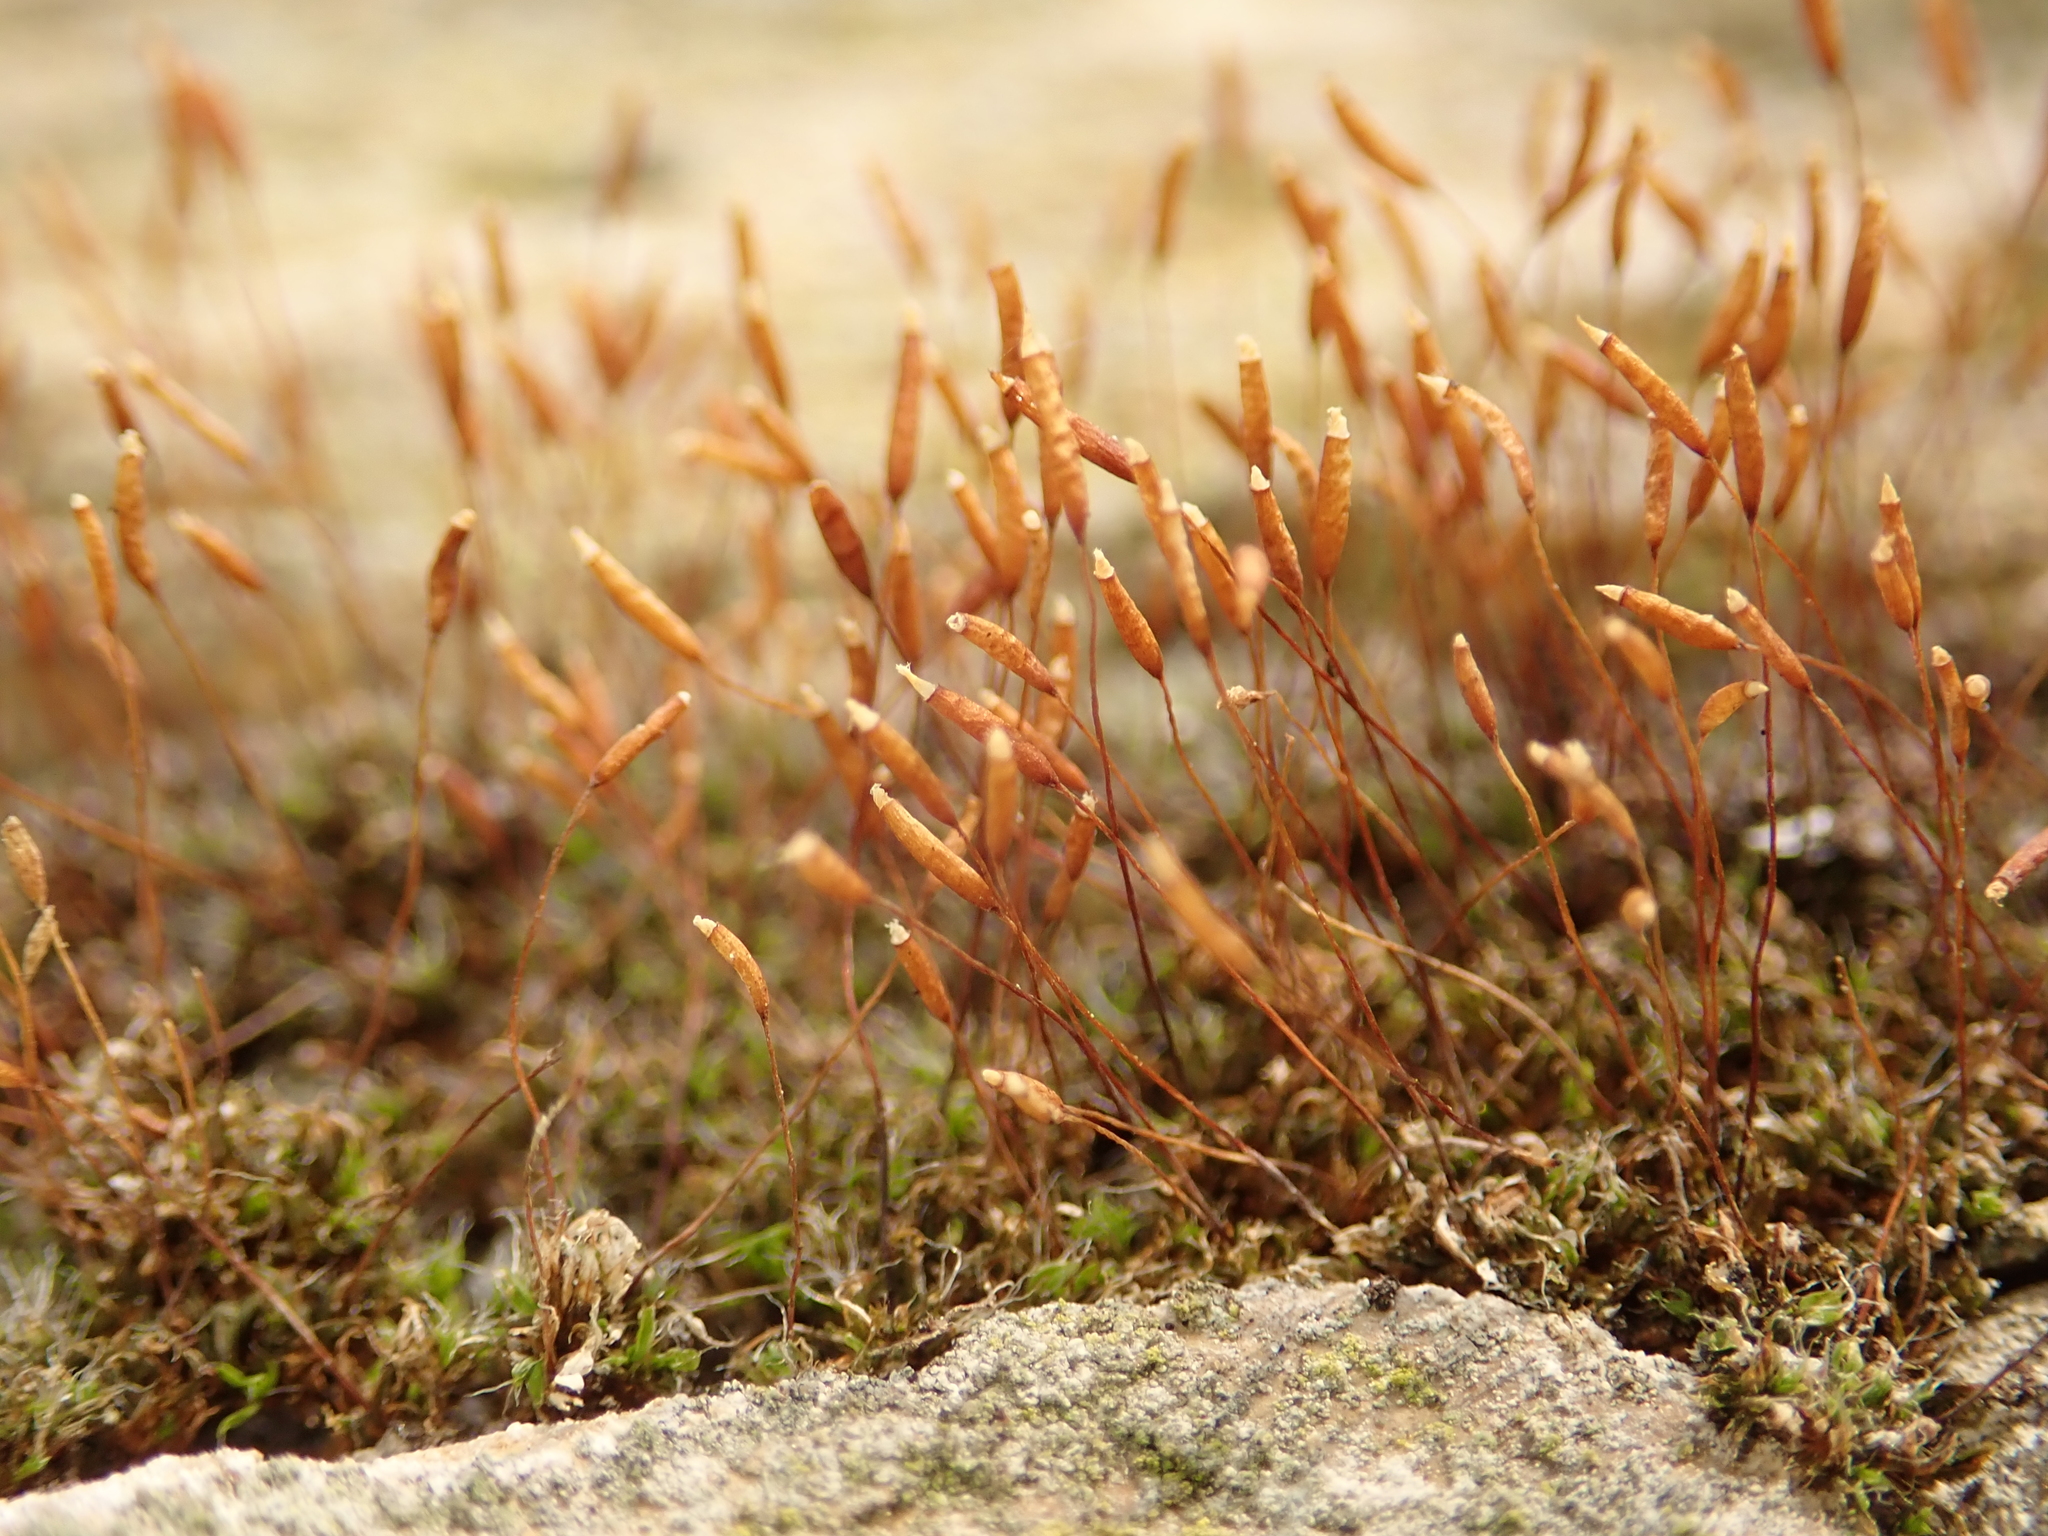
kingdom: Plantae
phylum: Bryophyta
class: Bryopsida
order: Pottiales
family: Pottiaceae
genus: Tortula
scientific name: Tortula muralis
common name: Wall screw-moss
